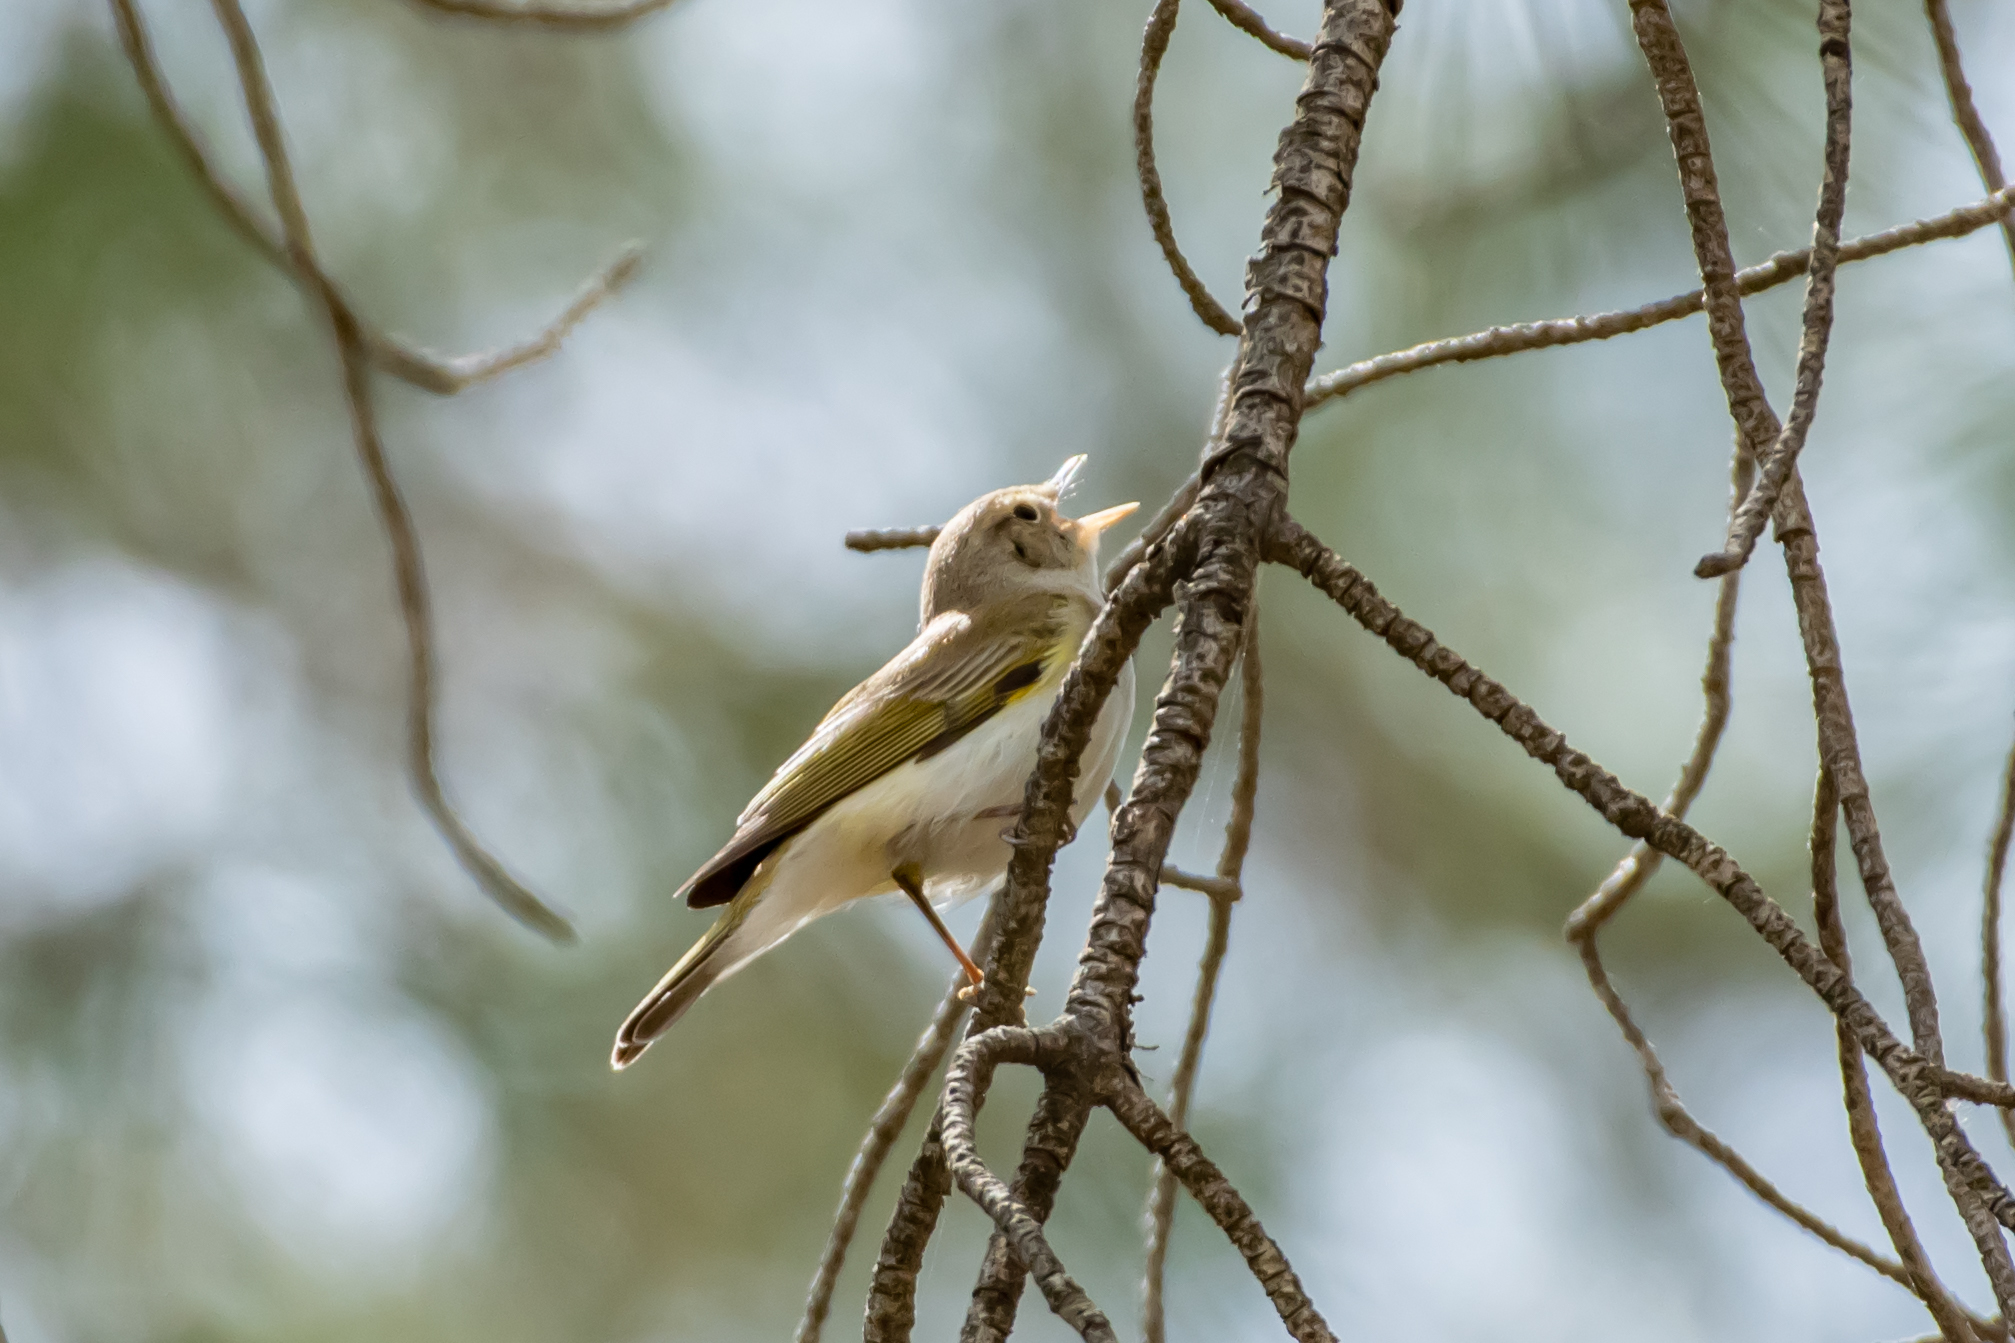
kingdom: Animalia
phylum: Chordata
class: Aves
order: Passeriformes
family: Phylloscopidae
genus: Phylloscopus
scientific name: Phylloscopus bonelli
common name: Western bonelli's warbler
